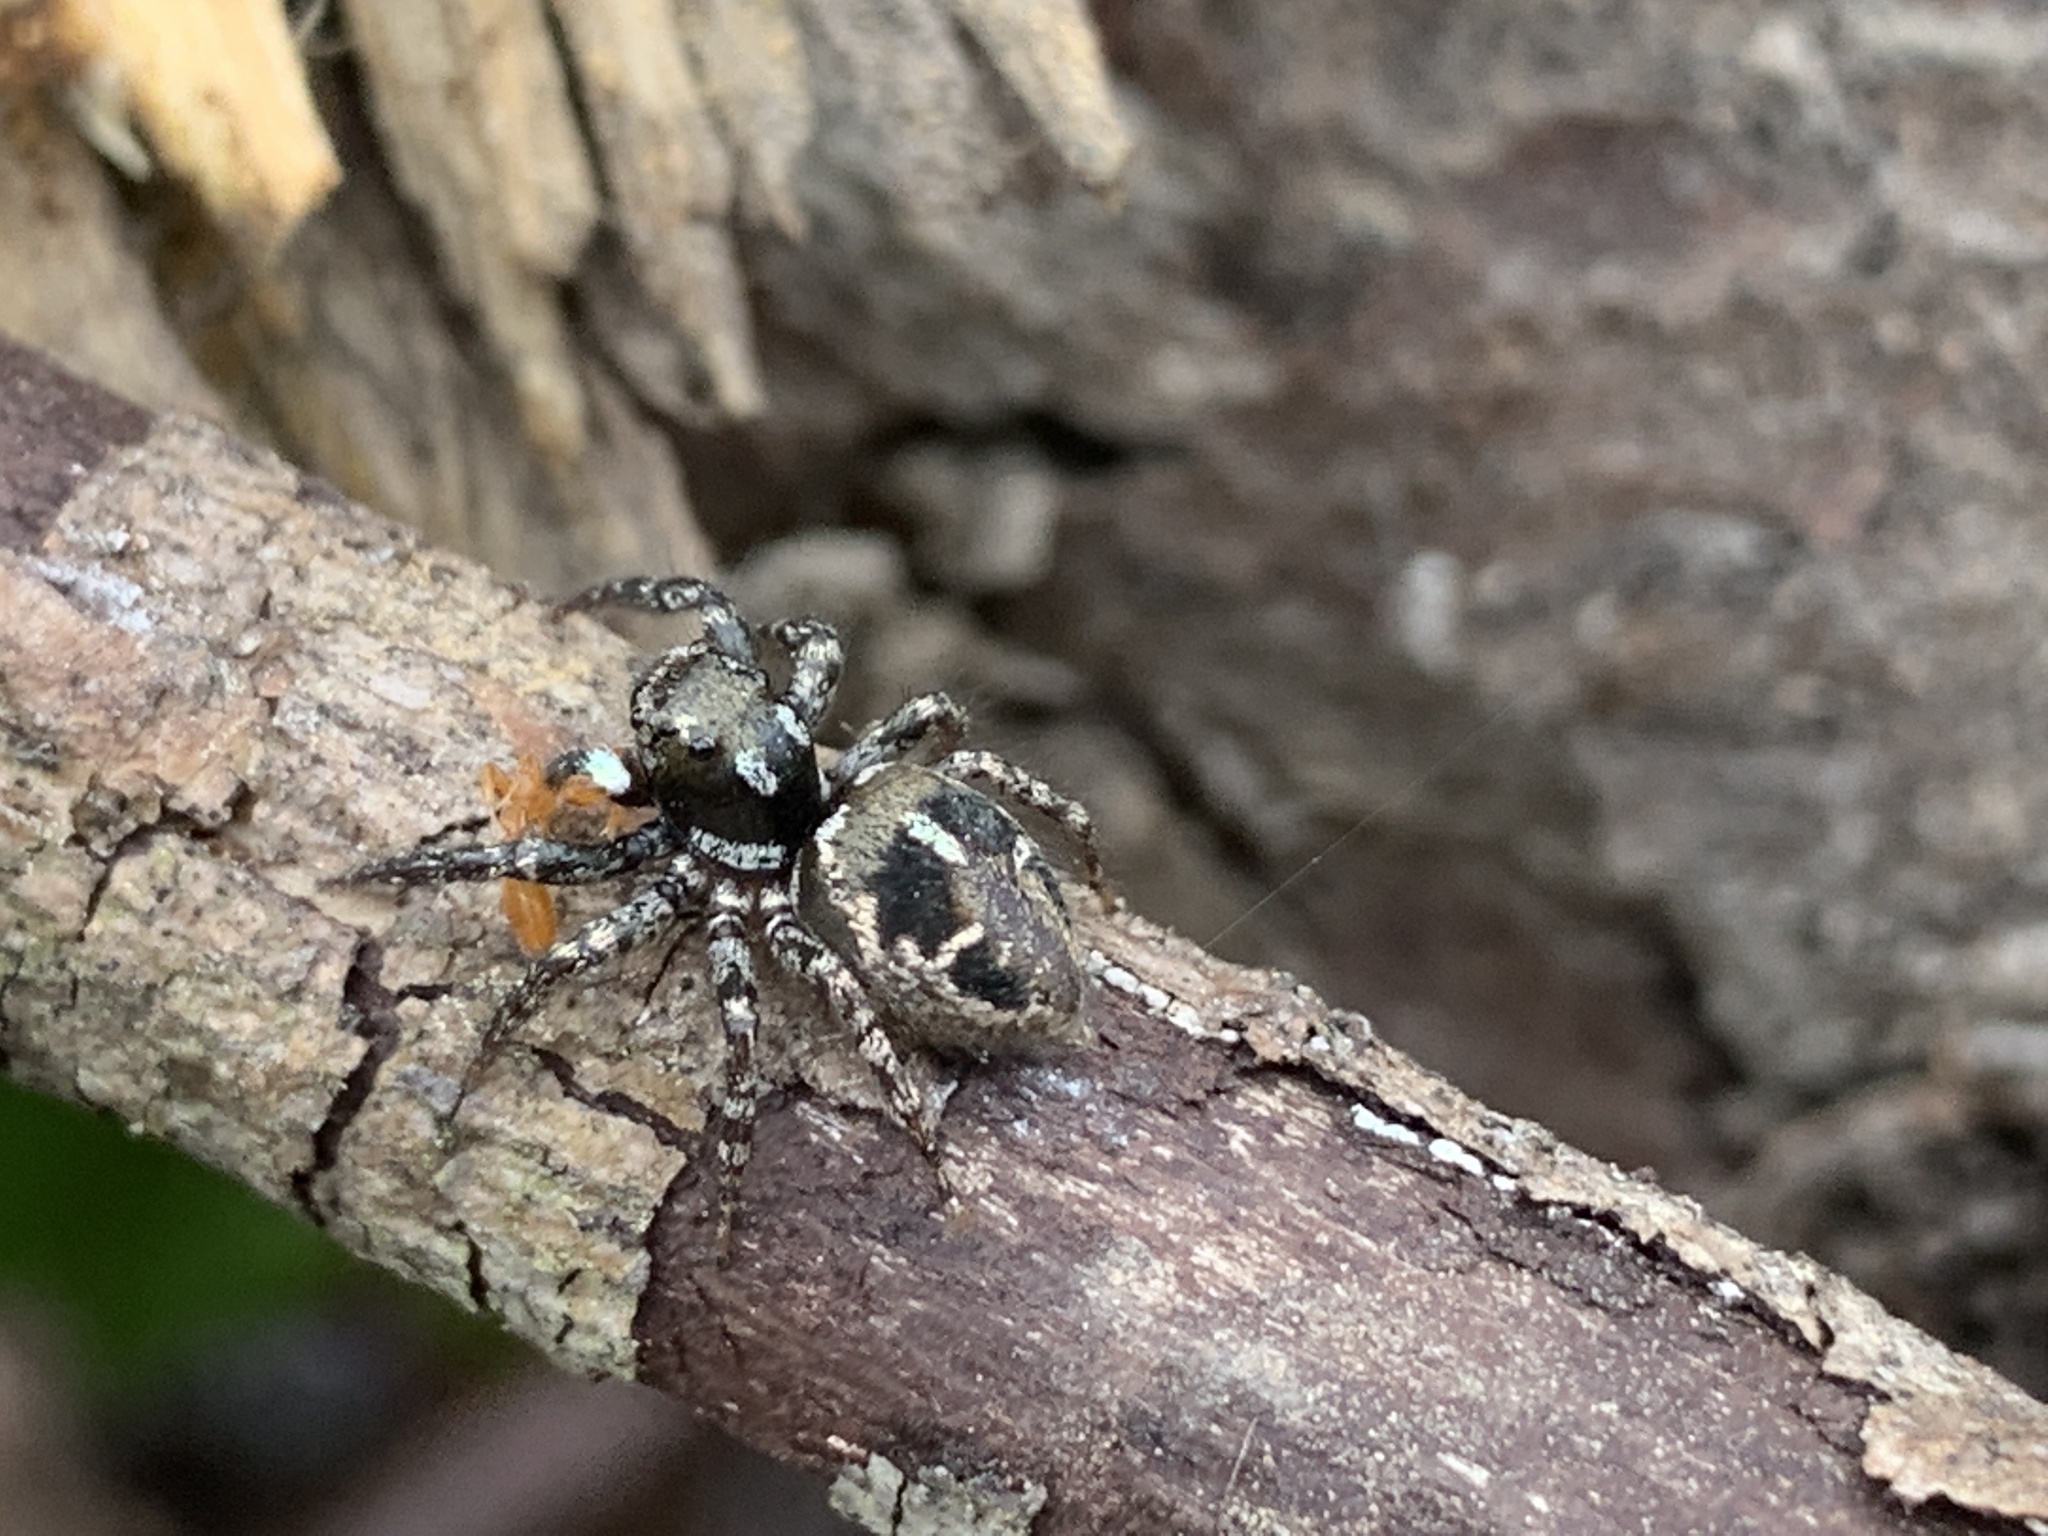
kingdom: Animalia
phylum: Arthropoda
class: Arachnida
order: Araneae
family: Salticidae
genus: Anasaitis
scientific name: Anasaitis canosa
